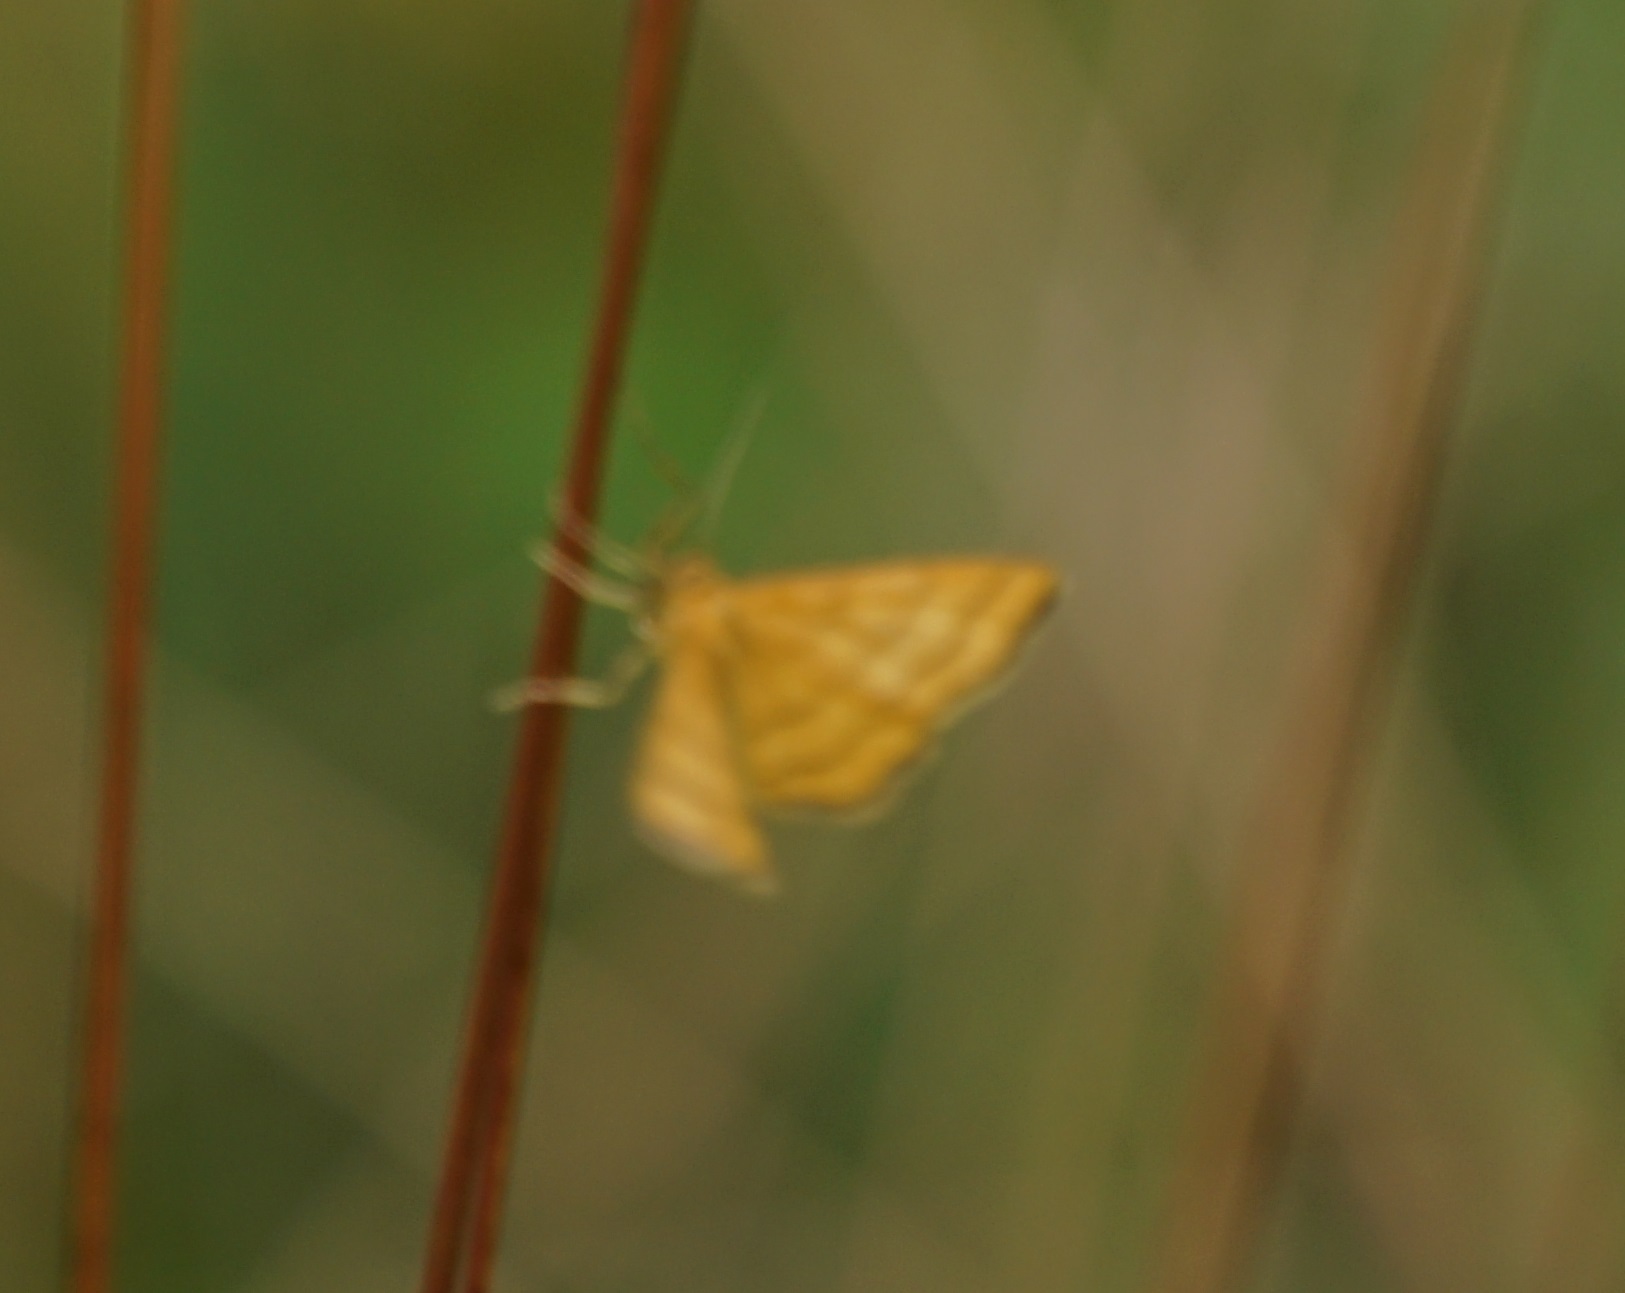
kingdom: Animalia
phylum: Arthropoda
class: Insecta
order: Lepidoptera
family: Geometridae
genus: Idaea
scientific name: Idaea aureolaria
